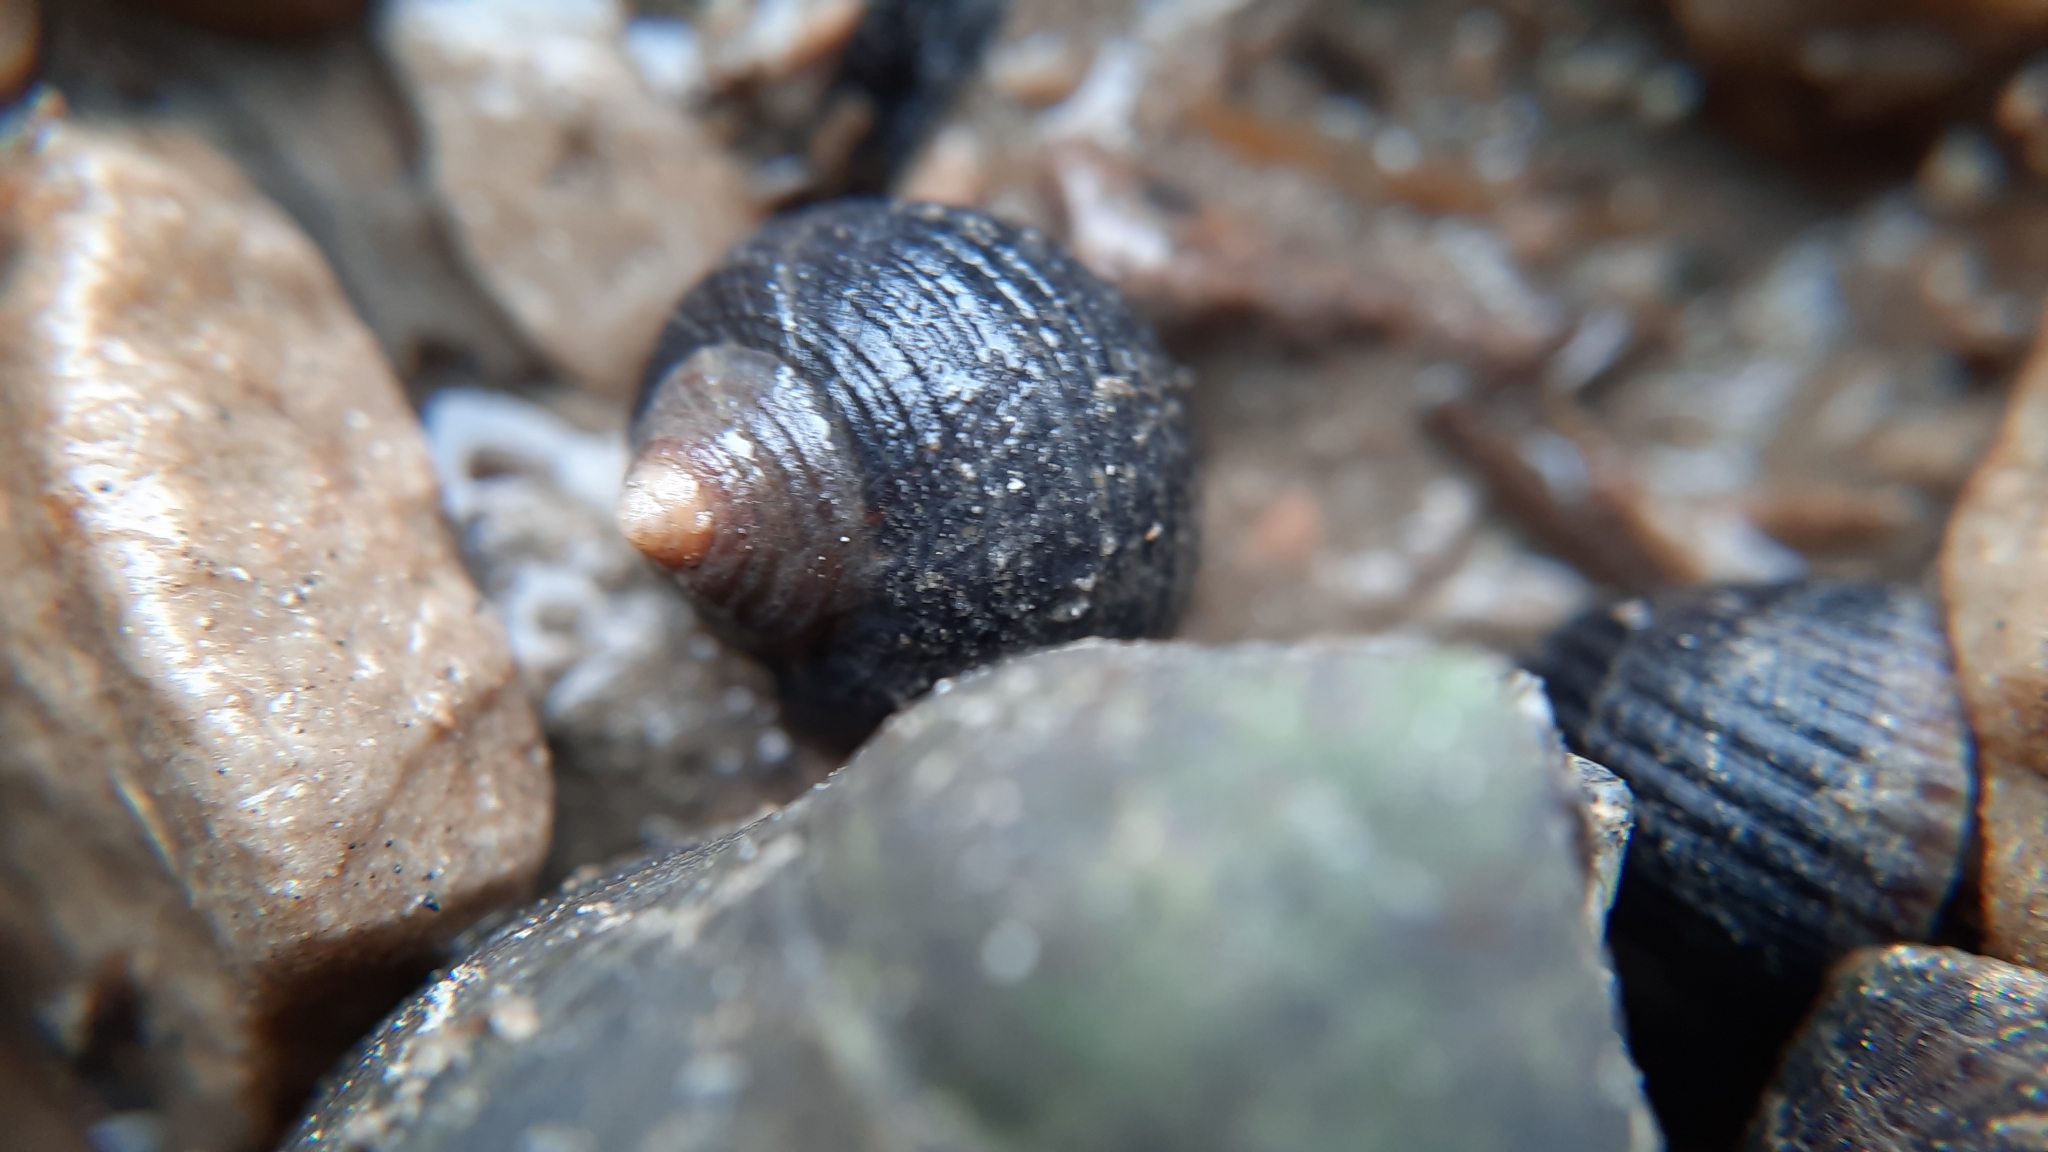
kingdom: Animalia
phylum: Mollusca
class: Gastropoda
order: Littorinimorpha
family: Littorinidae
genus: Littorina
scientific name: Littorina littorea
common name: Common periwinkle
